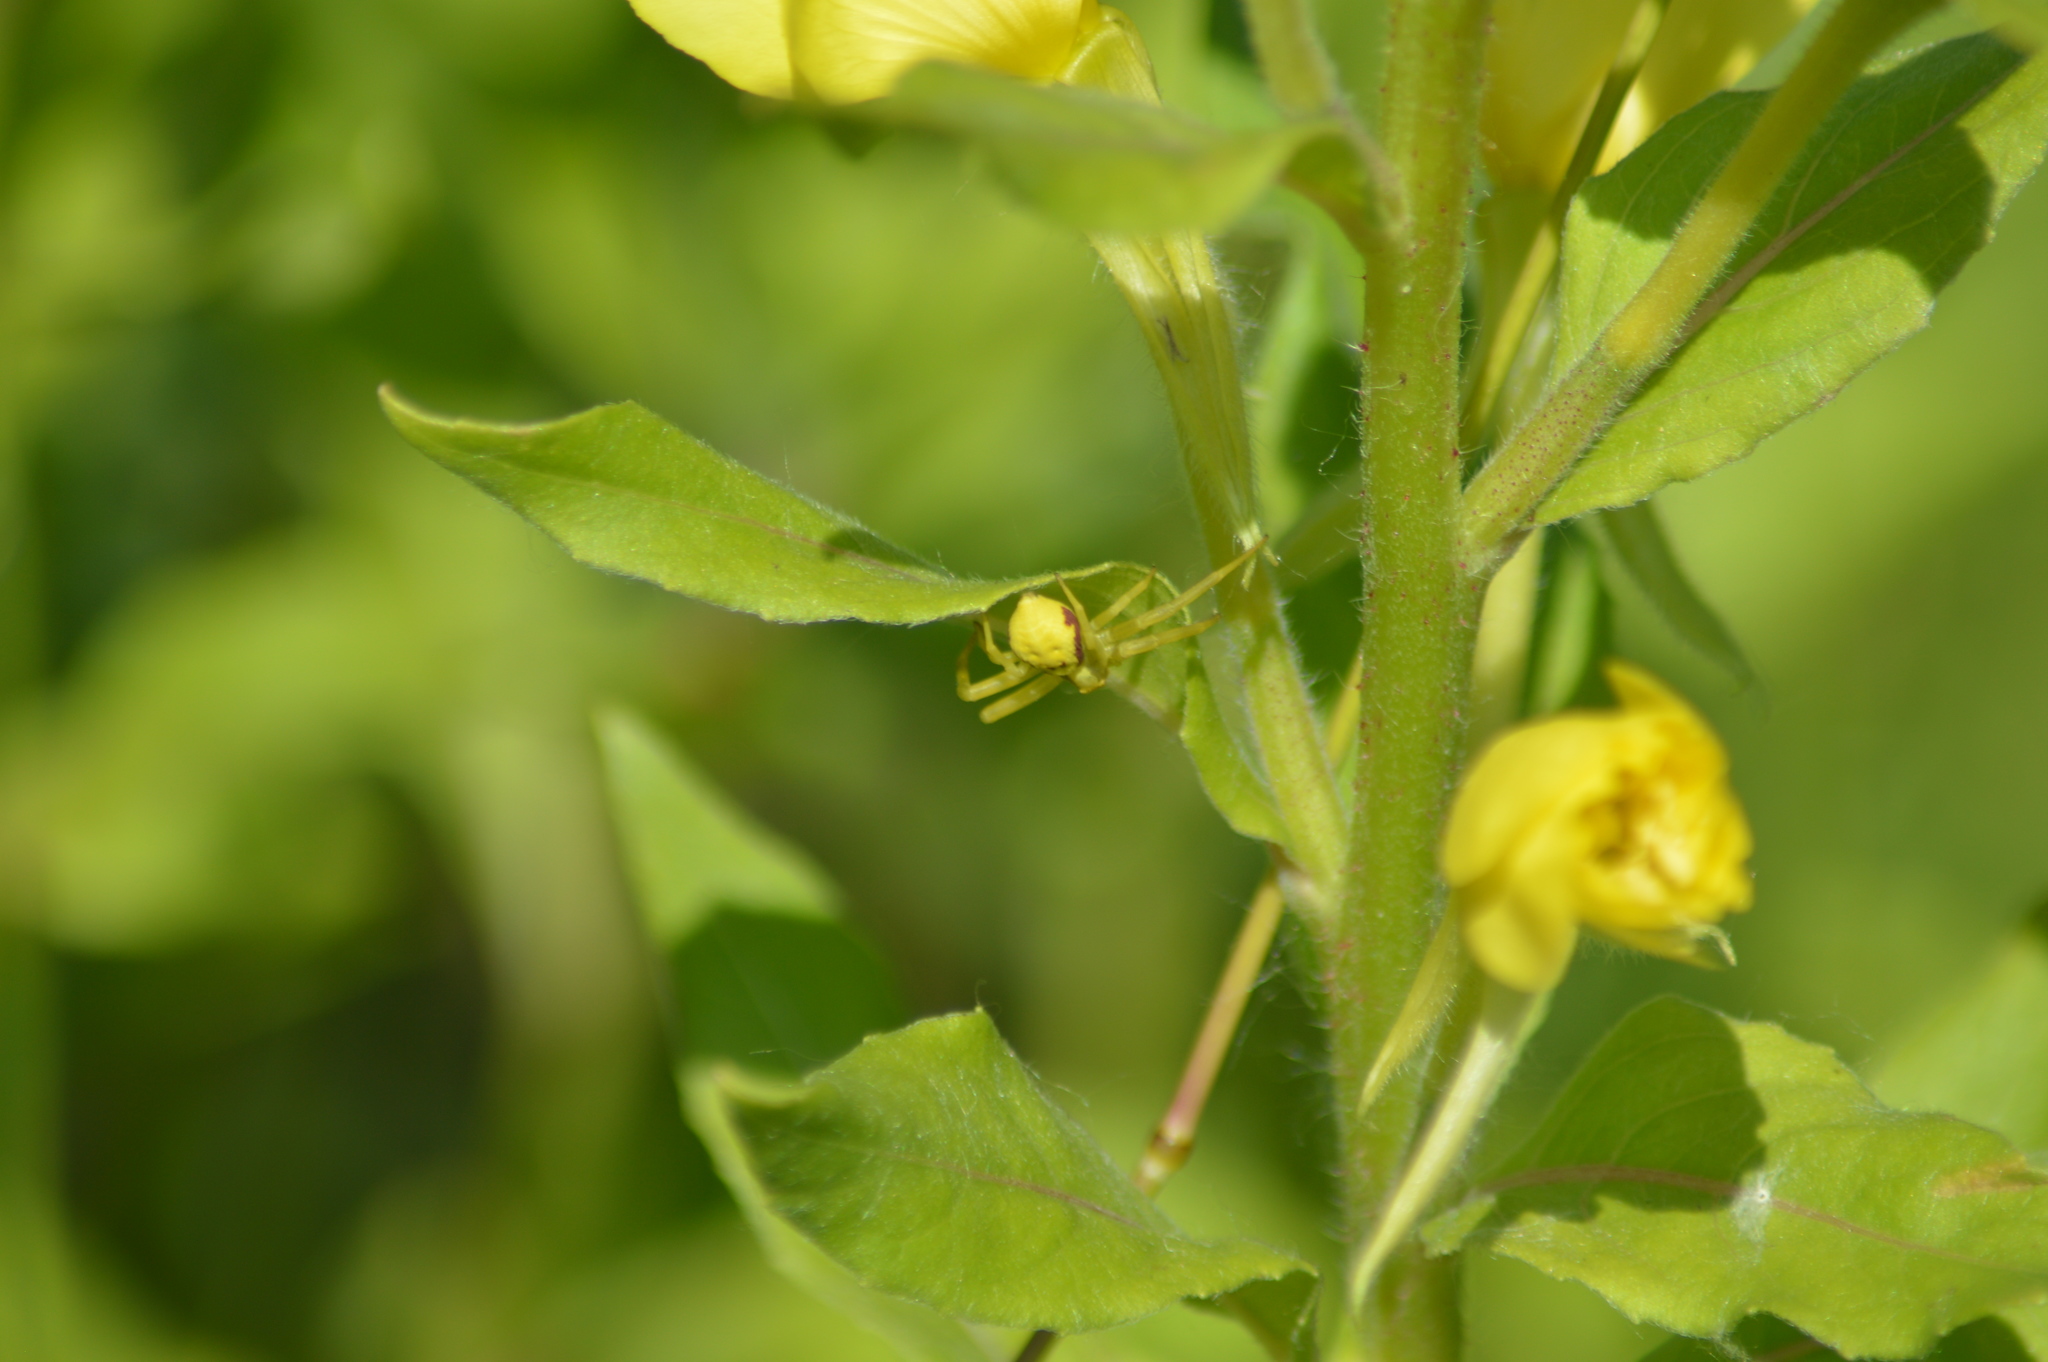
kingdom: Animalia
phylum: Arthropoda
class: Arachnida
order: Araneae
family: Thomisidae
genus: Misumena
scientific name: Misumena vatia
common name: Goldenrod crab spider
